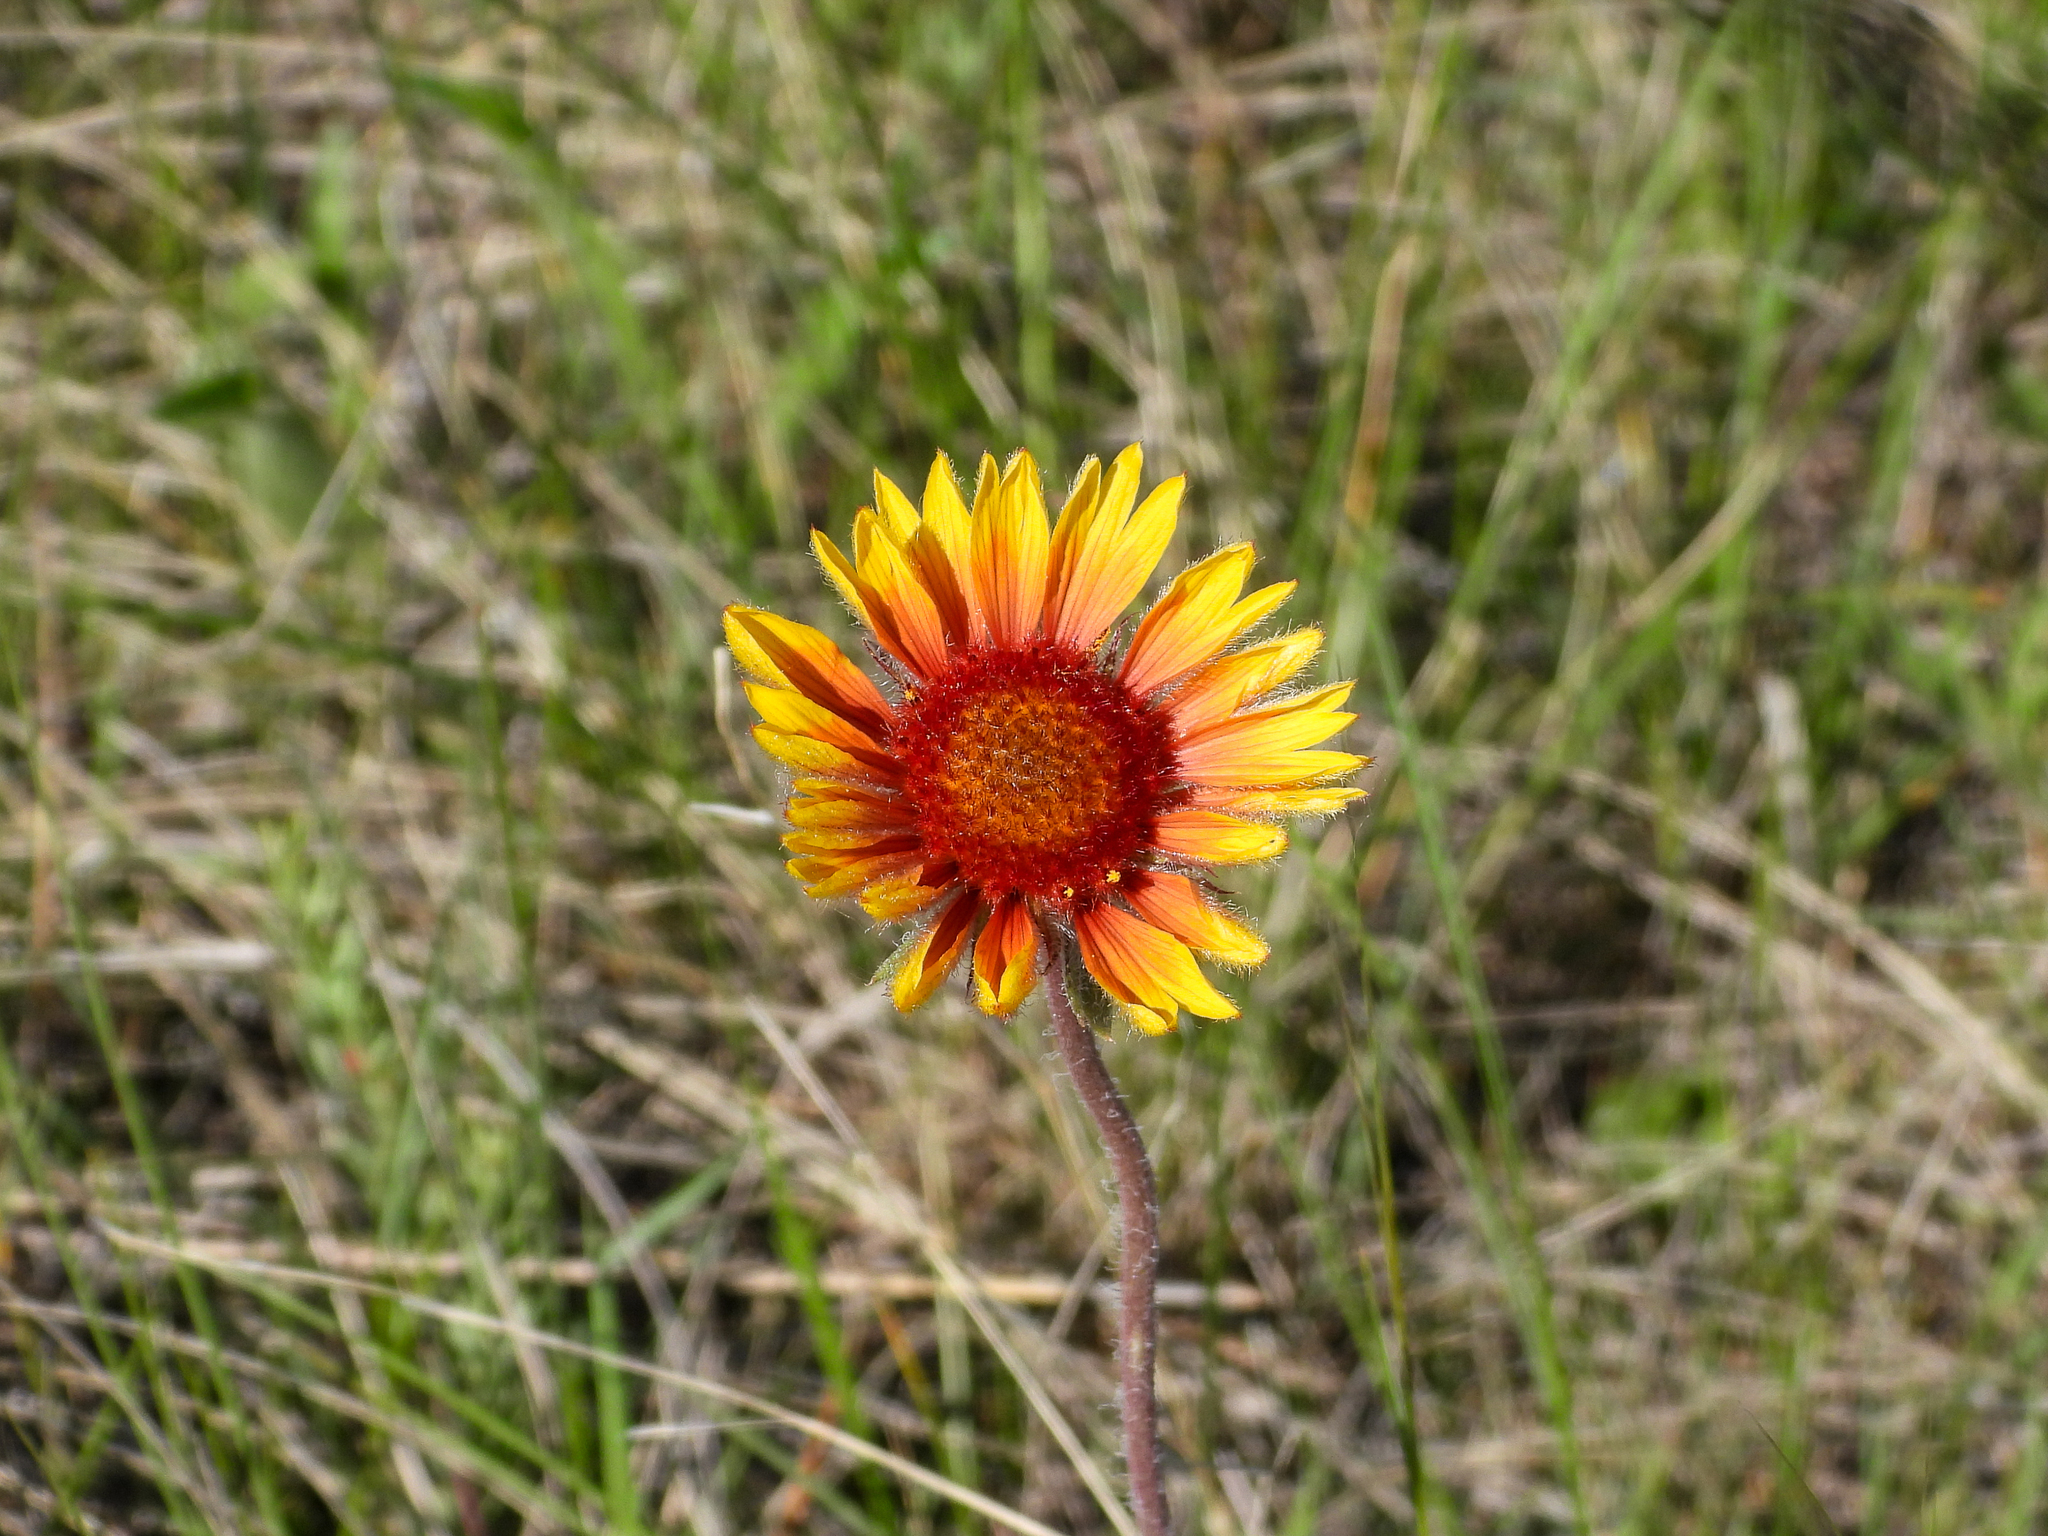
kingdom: Plantae
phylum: Tracheophyta
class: Magnoliopsida
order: Asterales
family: Asteraceae
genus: Gaillardia
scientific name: Gaillardia aristata
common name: Blanket-flower
